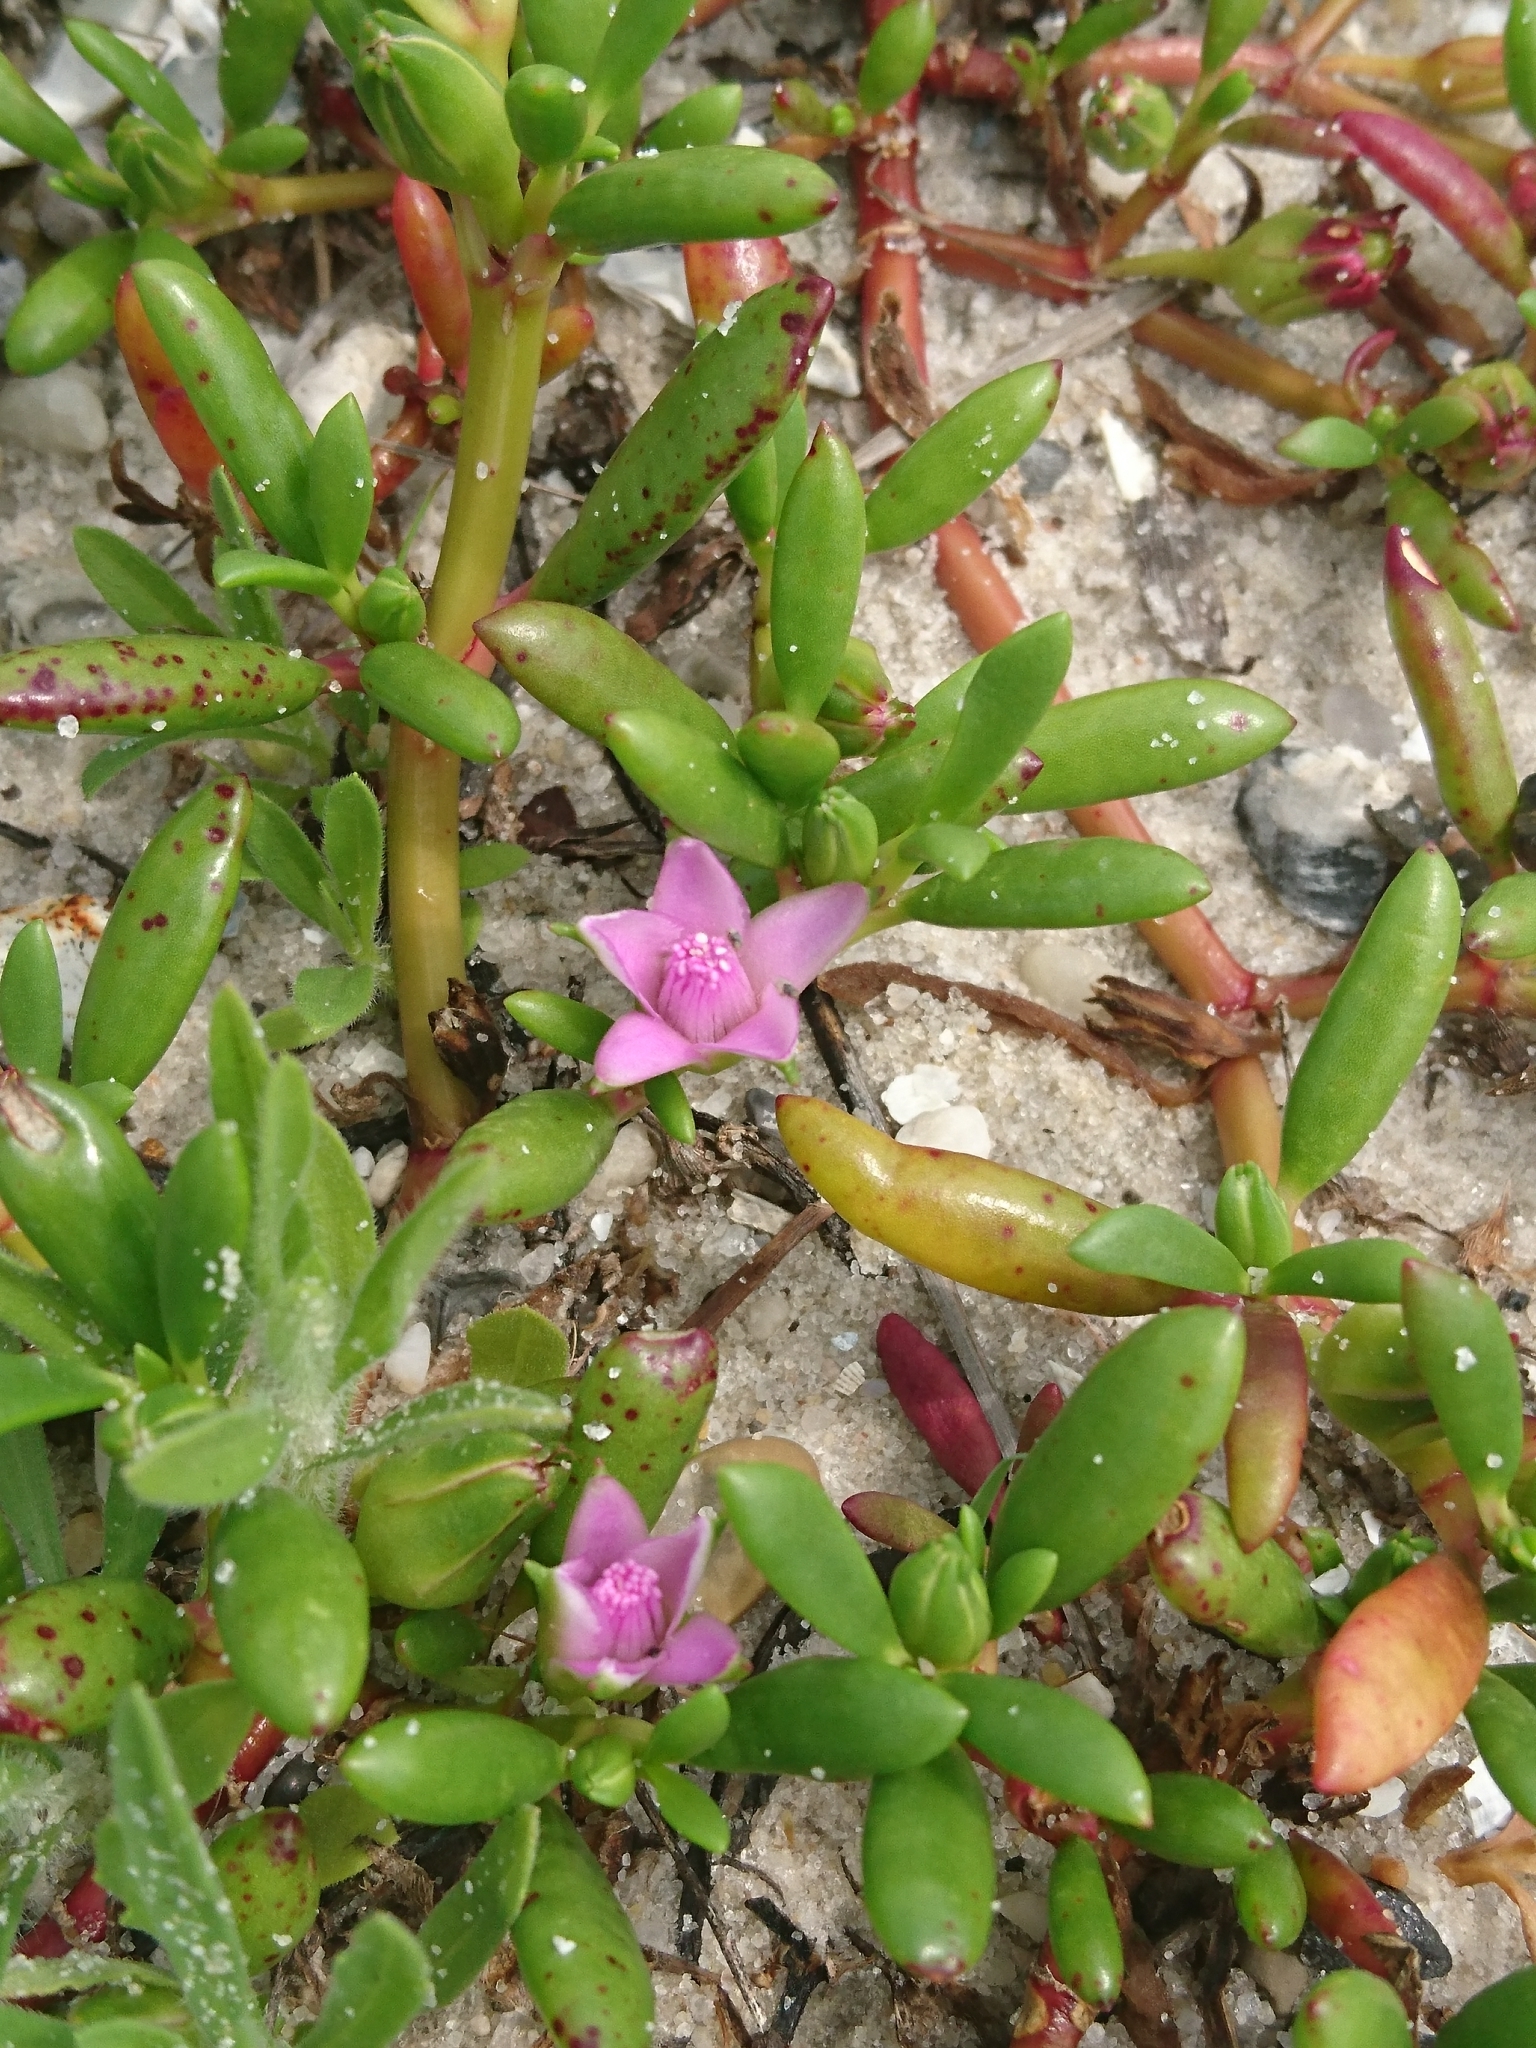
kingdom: Plantae
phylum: Tracheophyta
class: Magnoliopsida
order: Caryophyllales
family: Aizoaceae
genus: Sesuvium
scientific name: Sesuvium portulacastrum
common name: Sea-purslane
